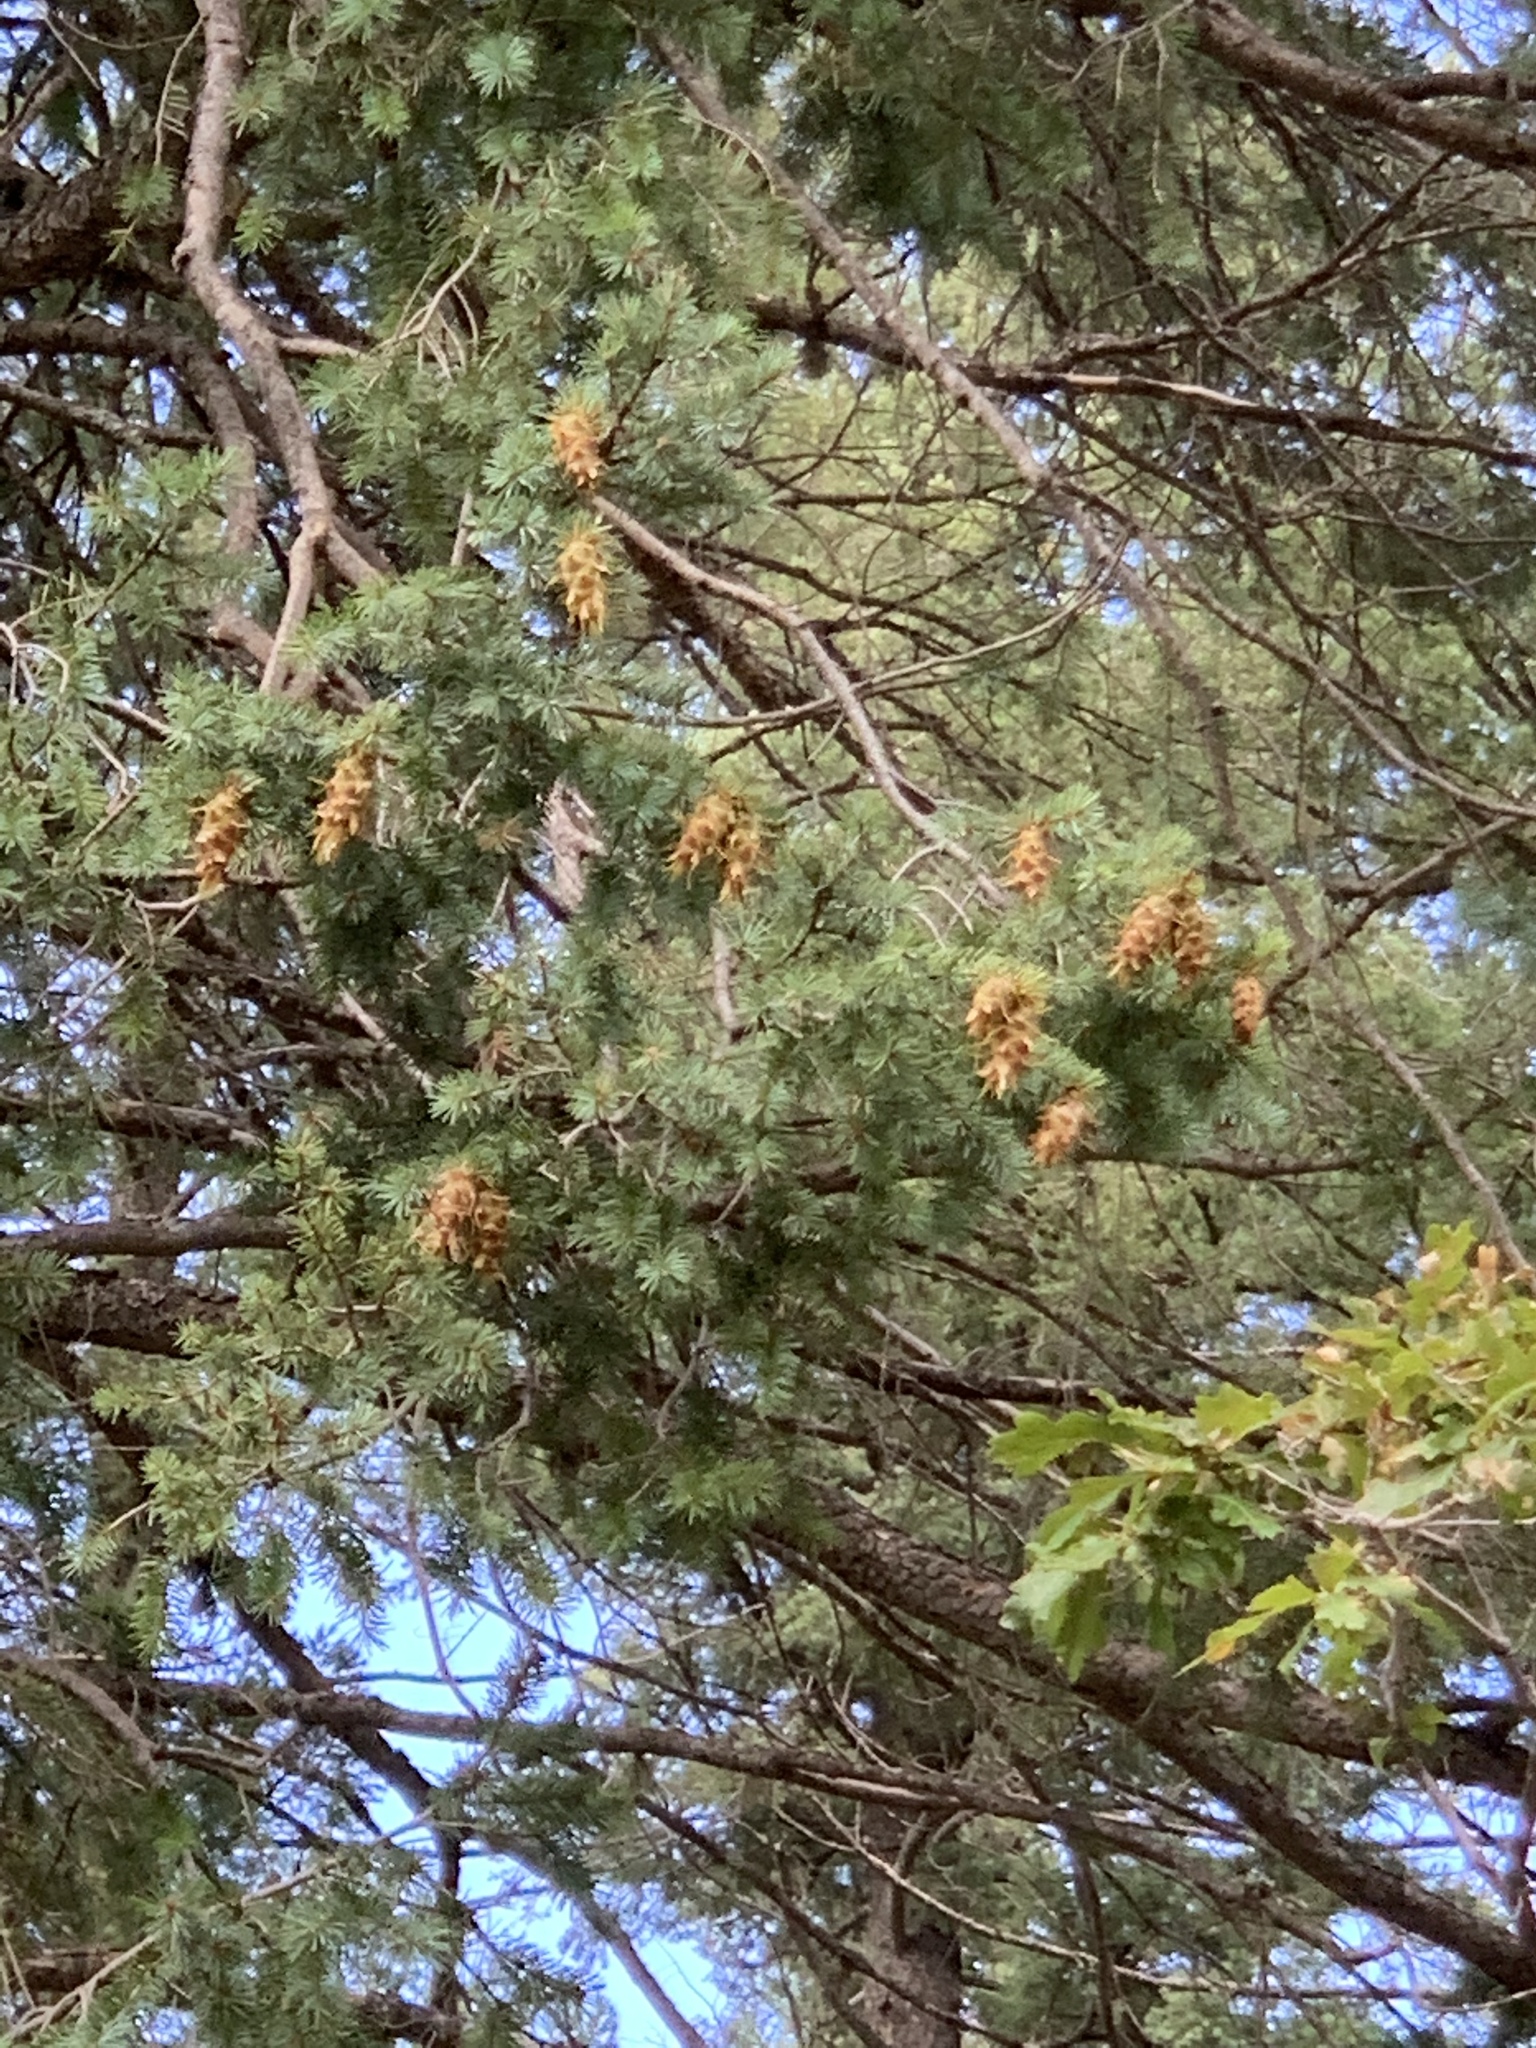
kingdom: Plantae
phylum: Tracheophyta
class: Pinopsida
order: Pinales
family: Pinaceae
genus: Pseudotsuga
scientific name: Pseudotsuga menziesii
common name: Douglas fir
